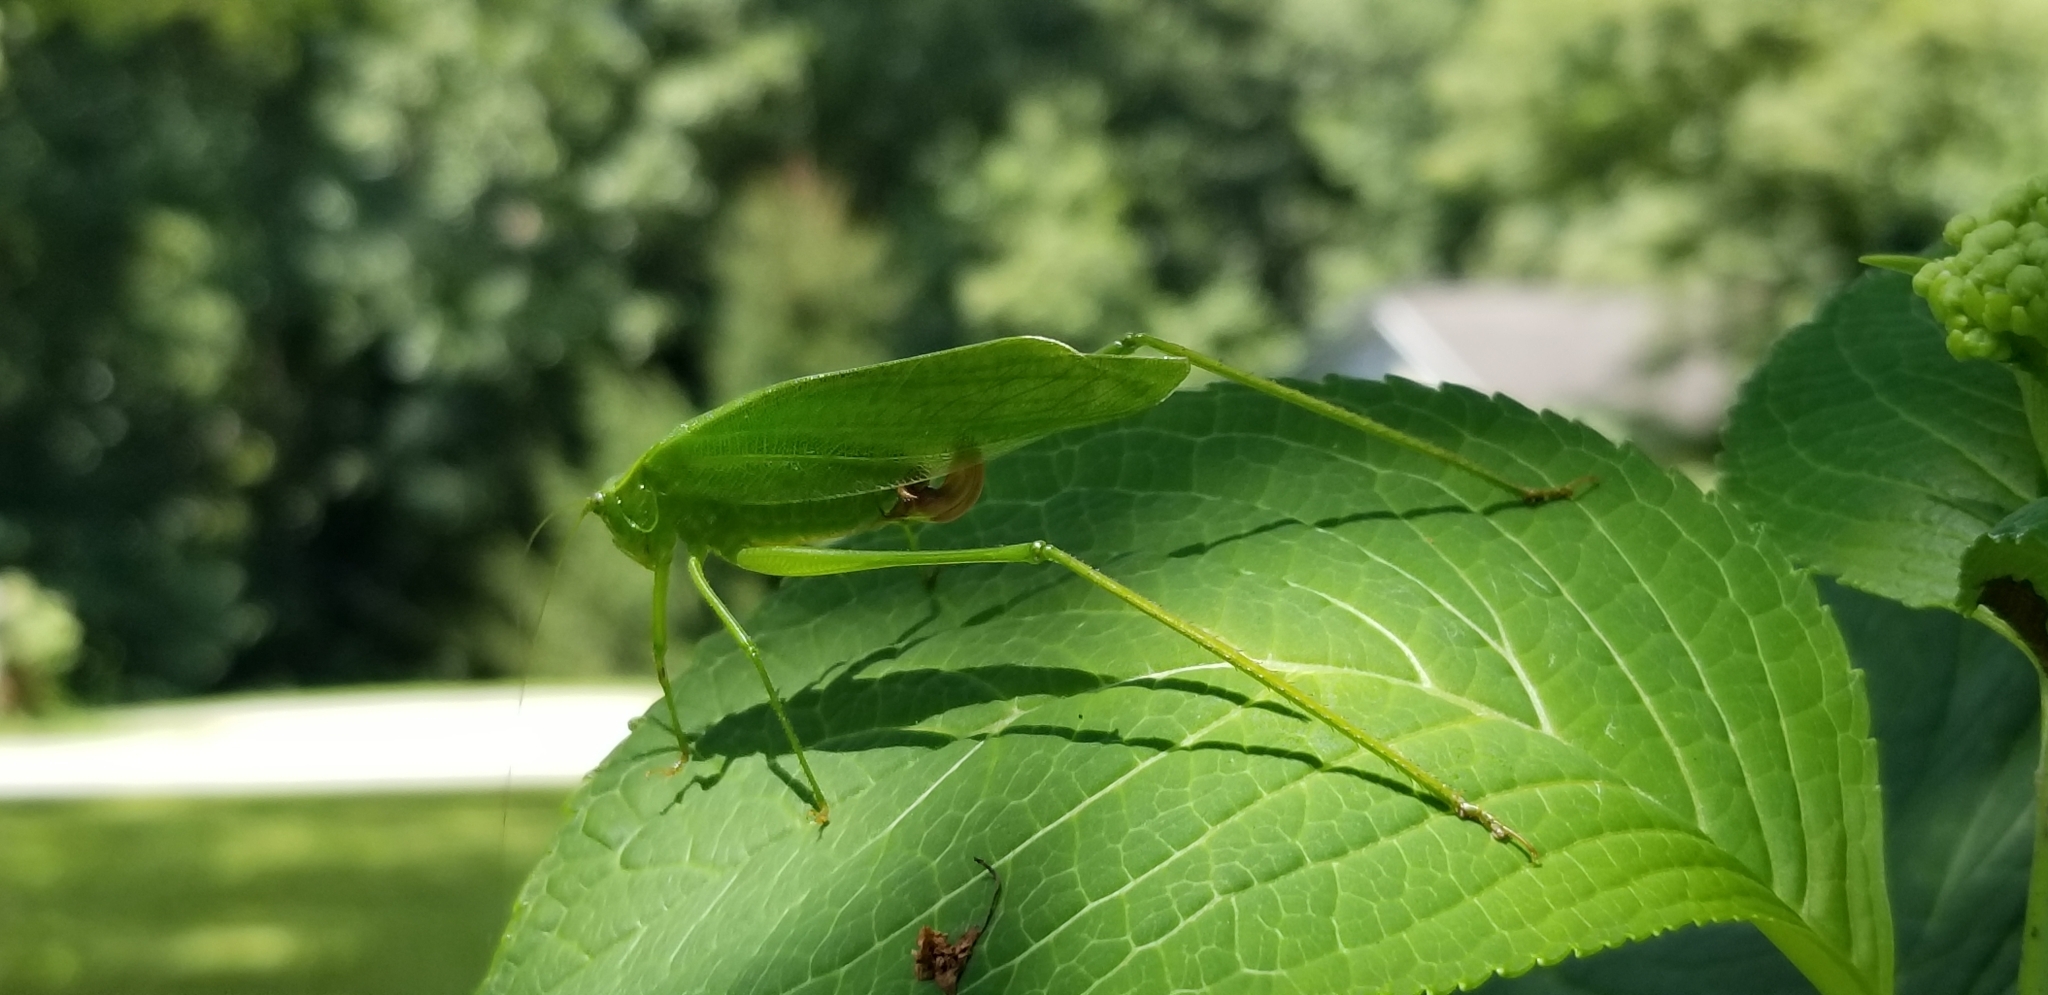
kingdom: Animalia
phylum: Arthropoda
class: Insecta
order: Orthoptera
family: Tettigoniidae
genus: Scudderia
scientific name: Scudderia furcata
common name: Fork-tailed bush katydid
